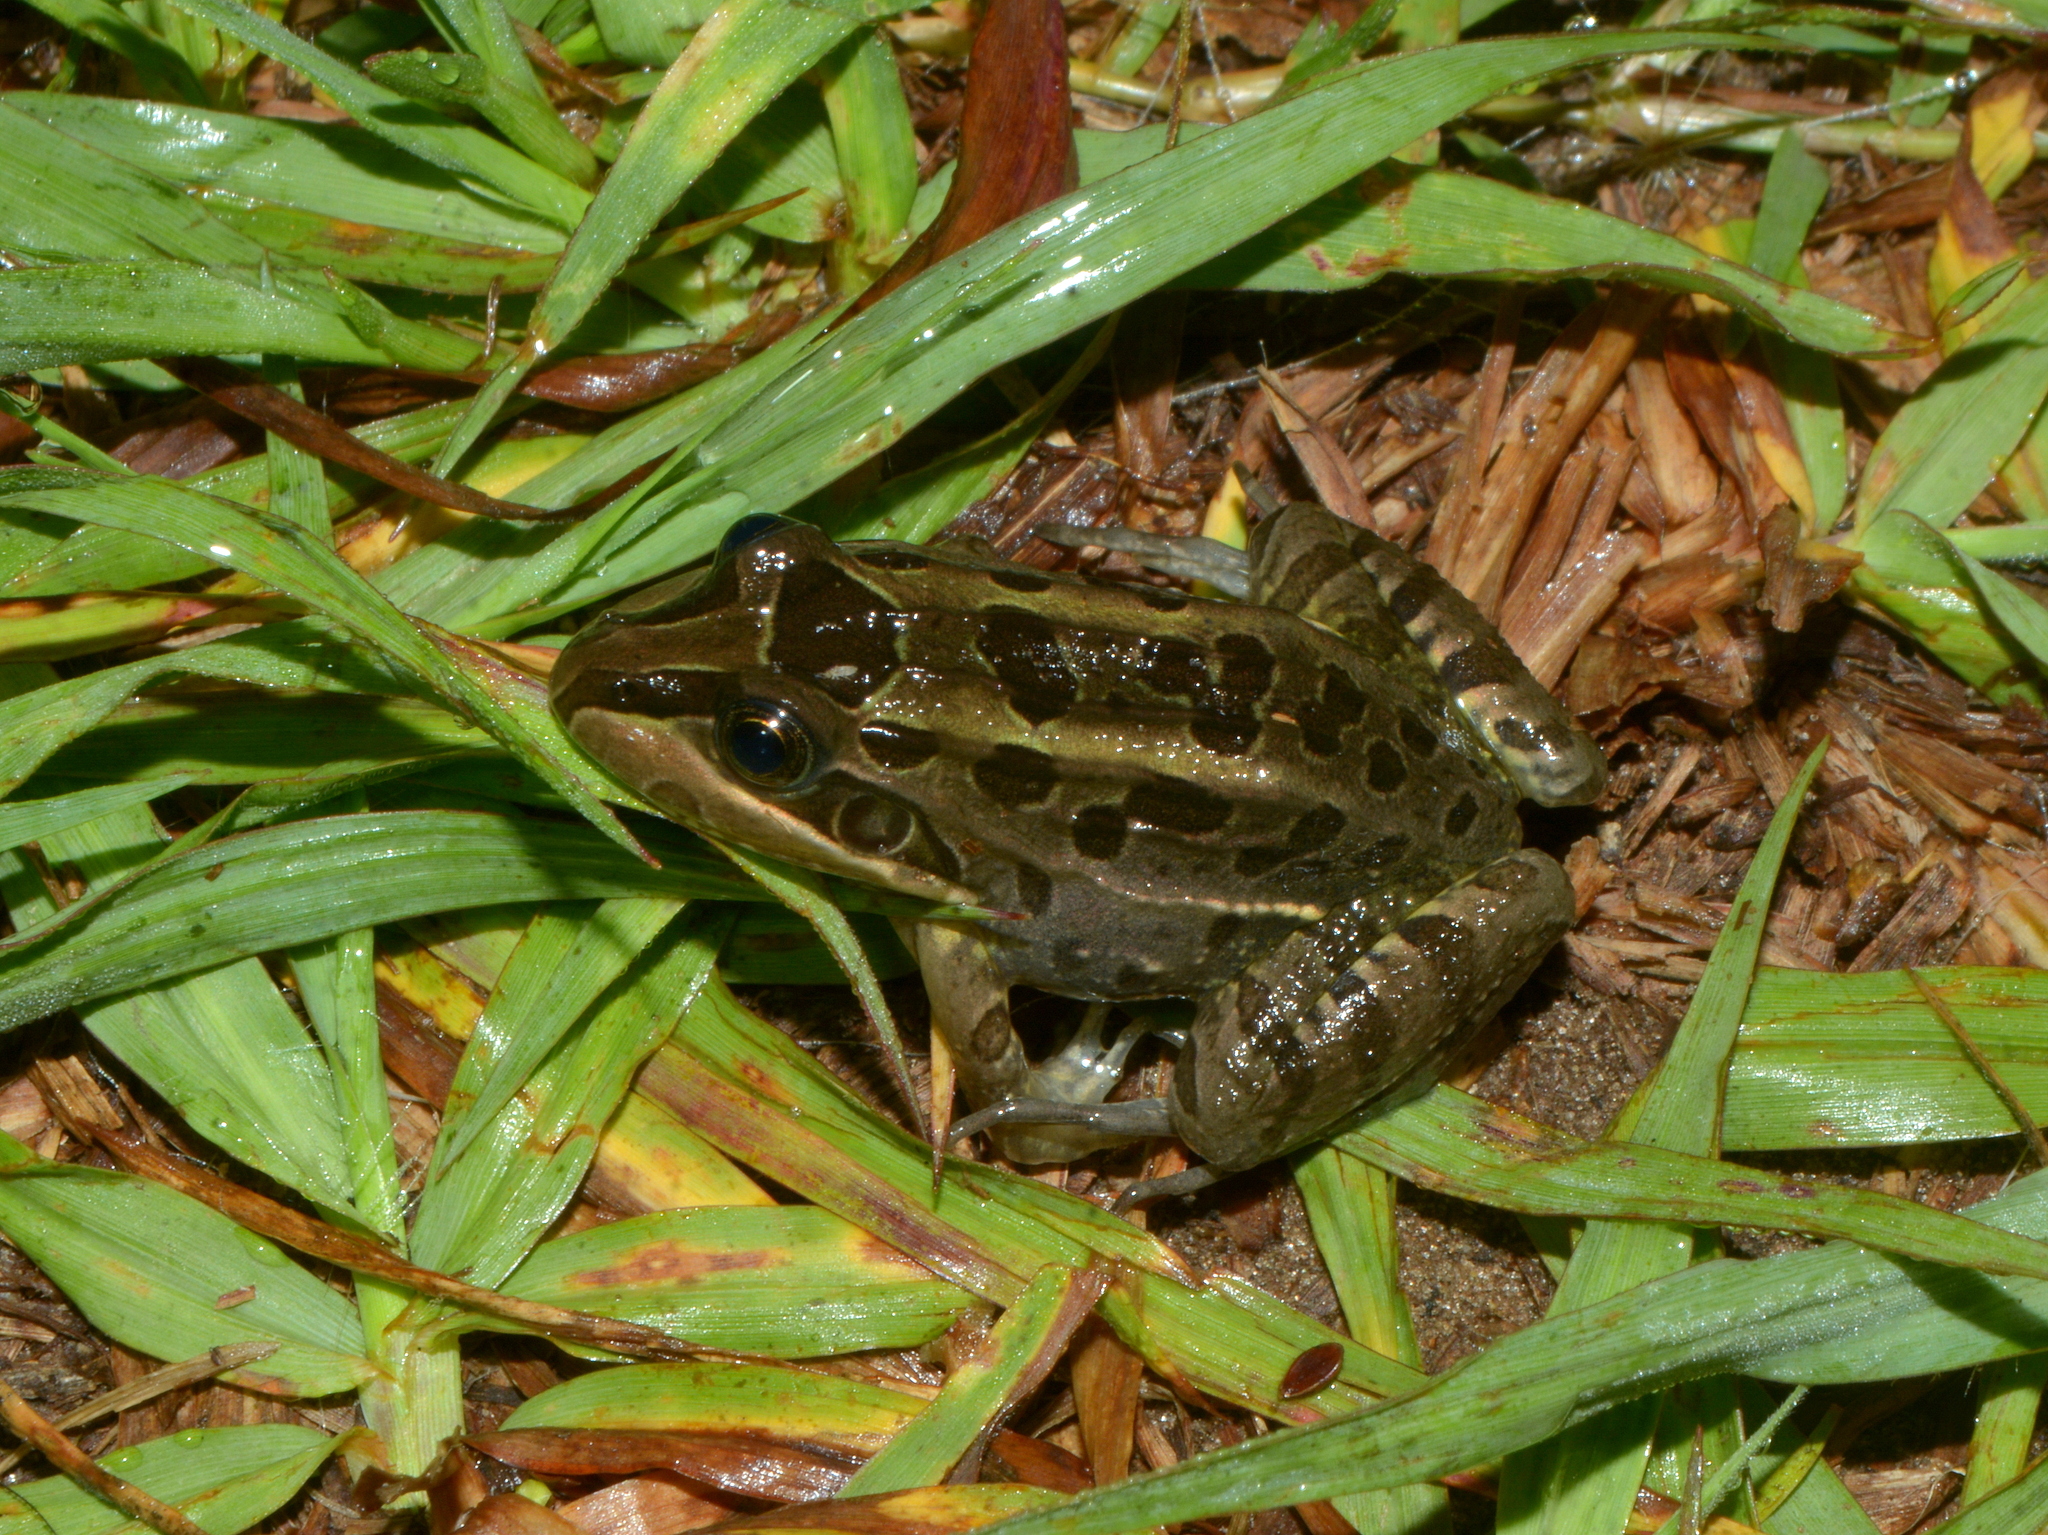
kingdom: Animalia
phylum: Chordata
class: Amphibia
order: Anura
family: Leptodactylidae
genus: Leptodactylus
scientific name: Leptodactylus luctator
